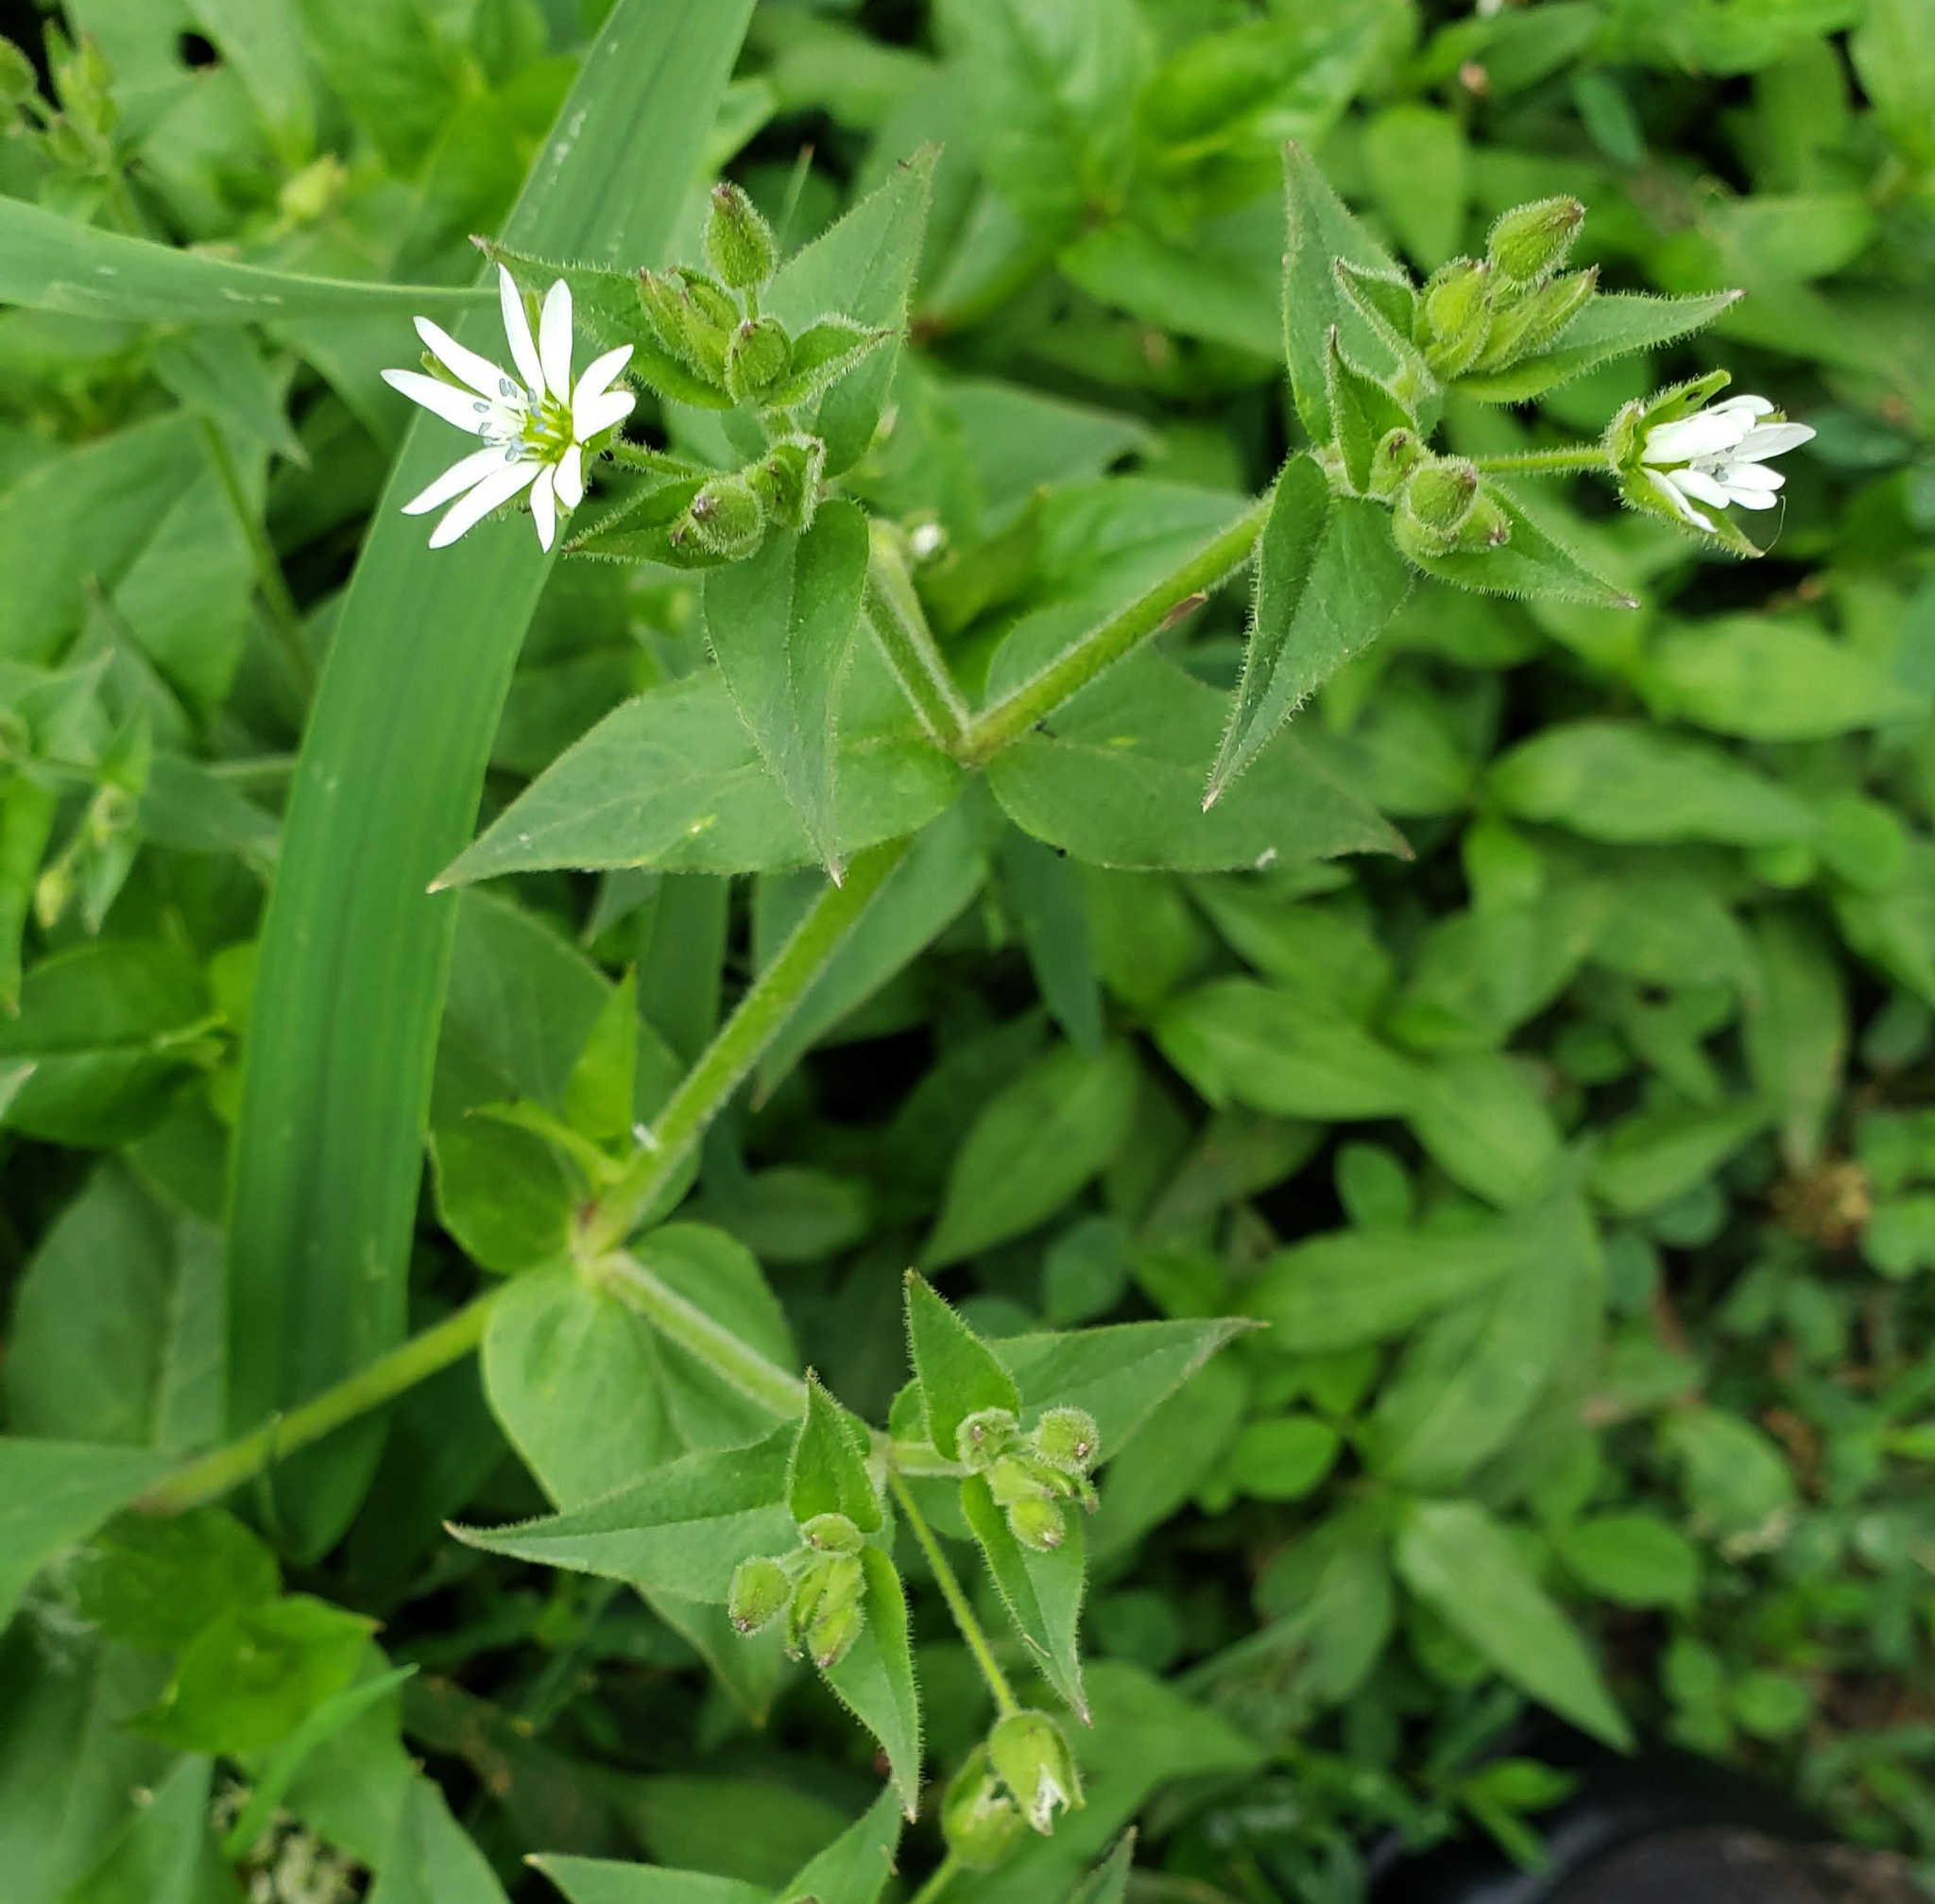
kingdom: Plantae
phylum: Tracheophyta
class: Magnoliopsida
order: Caryophyllales
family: Caryophyllaceae
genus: Stellaria
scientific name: Stellaria aquatica
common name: Water chickweed
